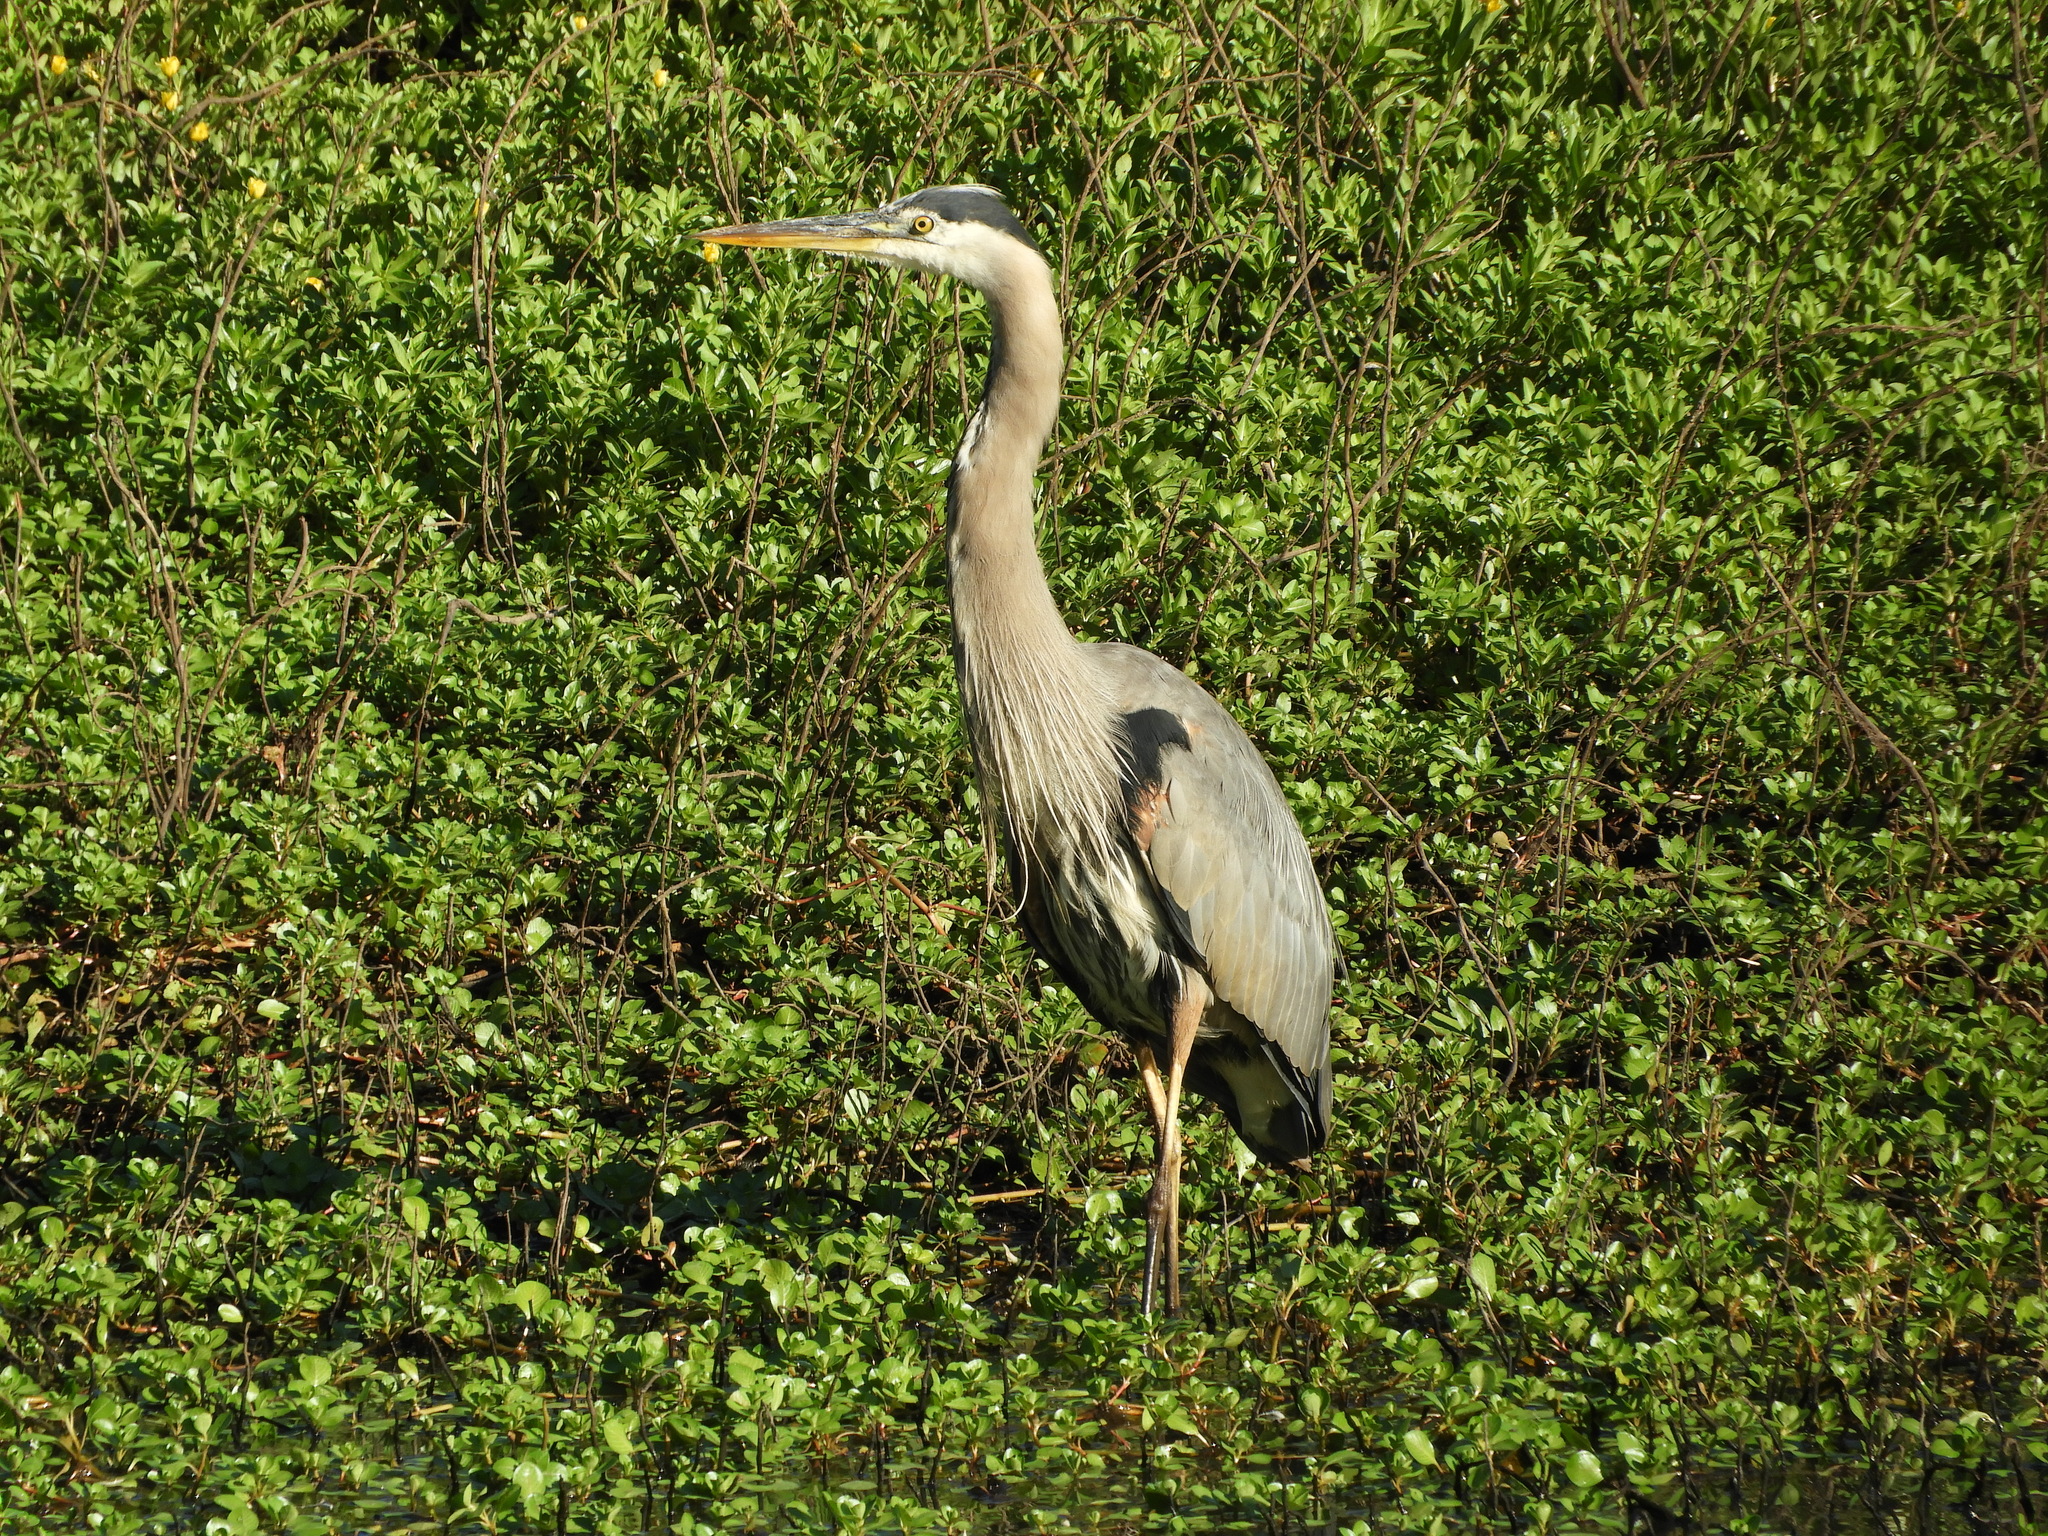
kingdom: Animalia
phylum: Chordata
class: Aves
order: Pelecaniformes
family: Ardeidae
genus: Ardea
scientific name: Ardea herodias
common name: Great blue heron
